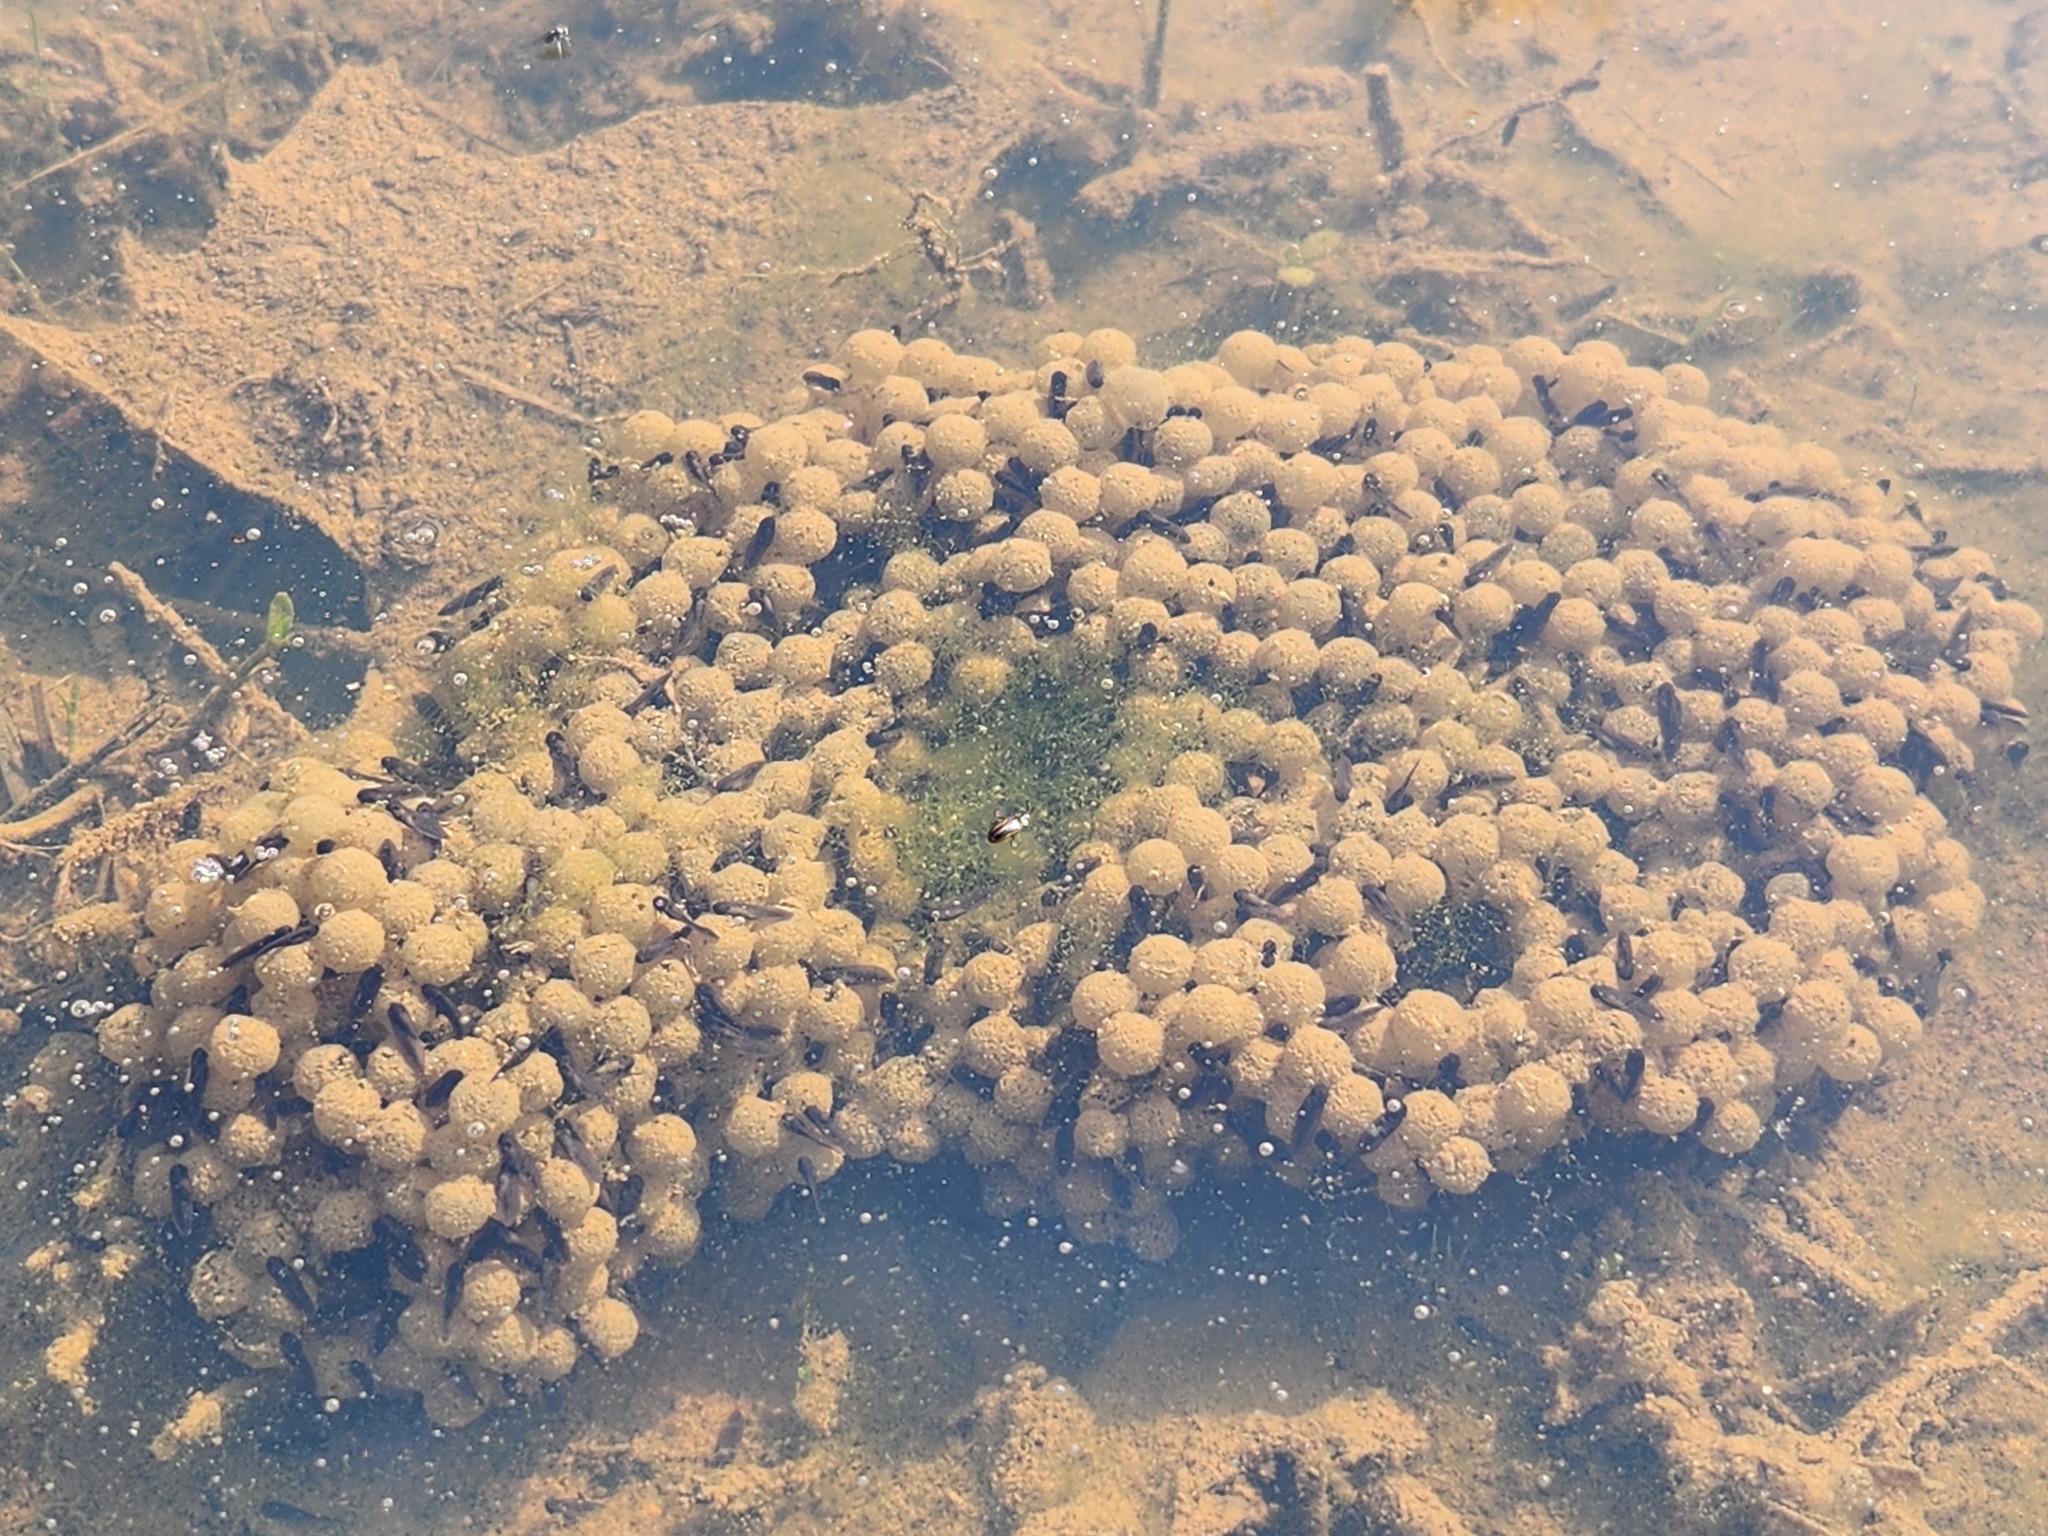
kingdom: Animalia
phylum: Chordata
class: Amphibia
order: Anura
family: Ranidae
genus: Lithobates
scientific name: Lithobates sphenocephalus
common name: Southern leopard frog
